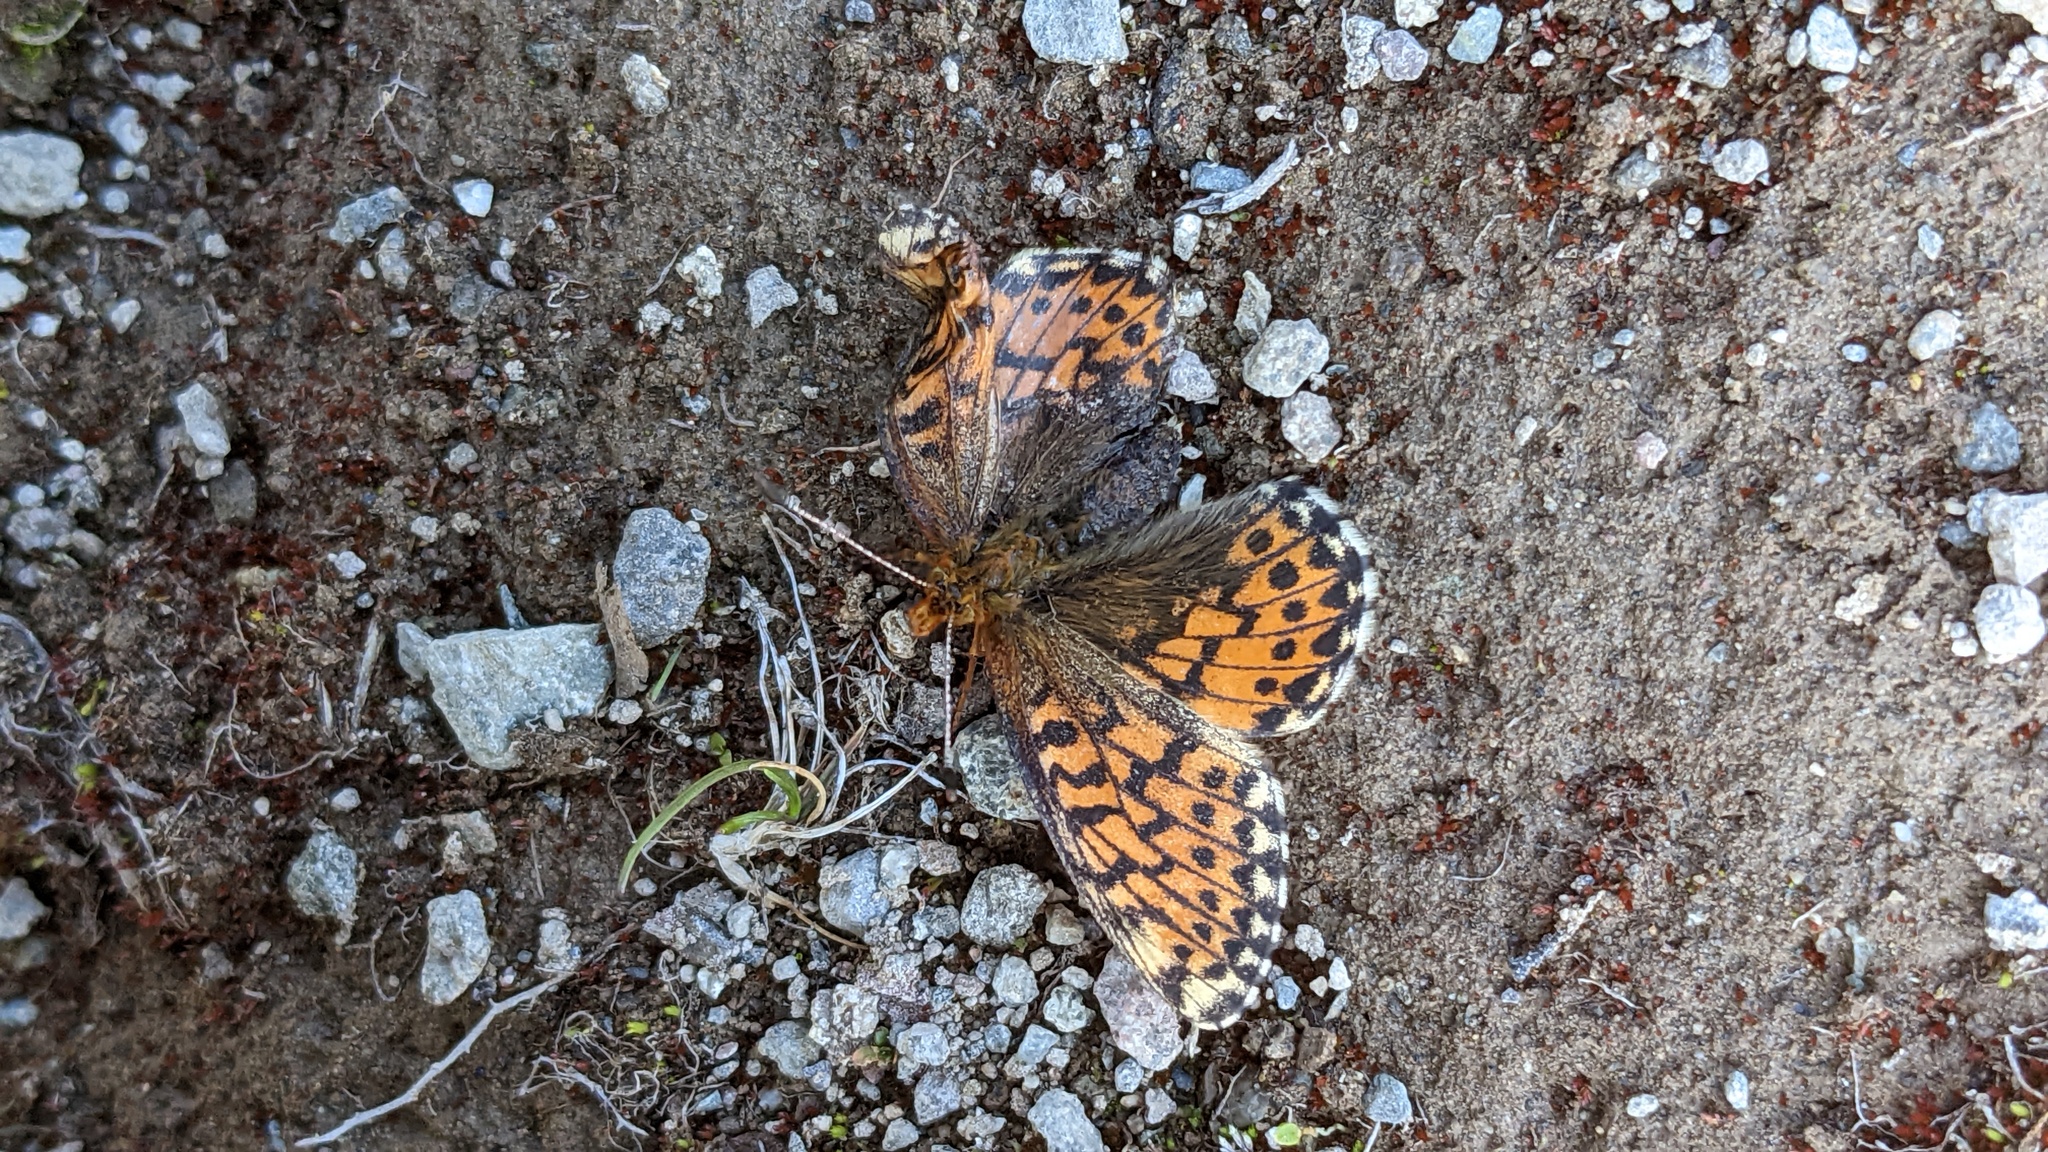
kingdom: Animalia
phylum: Arthropoda
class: Insecta
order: Lepidoptera
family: Nymphalidae
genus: Boloria
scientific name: Boloria chariclea
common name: Arctic fritillary
